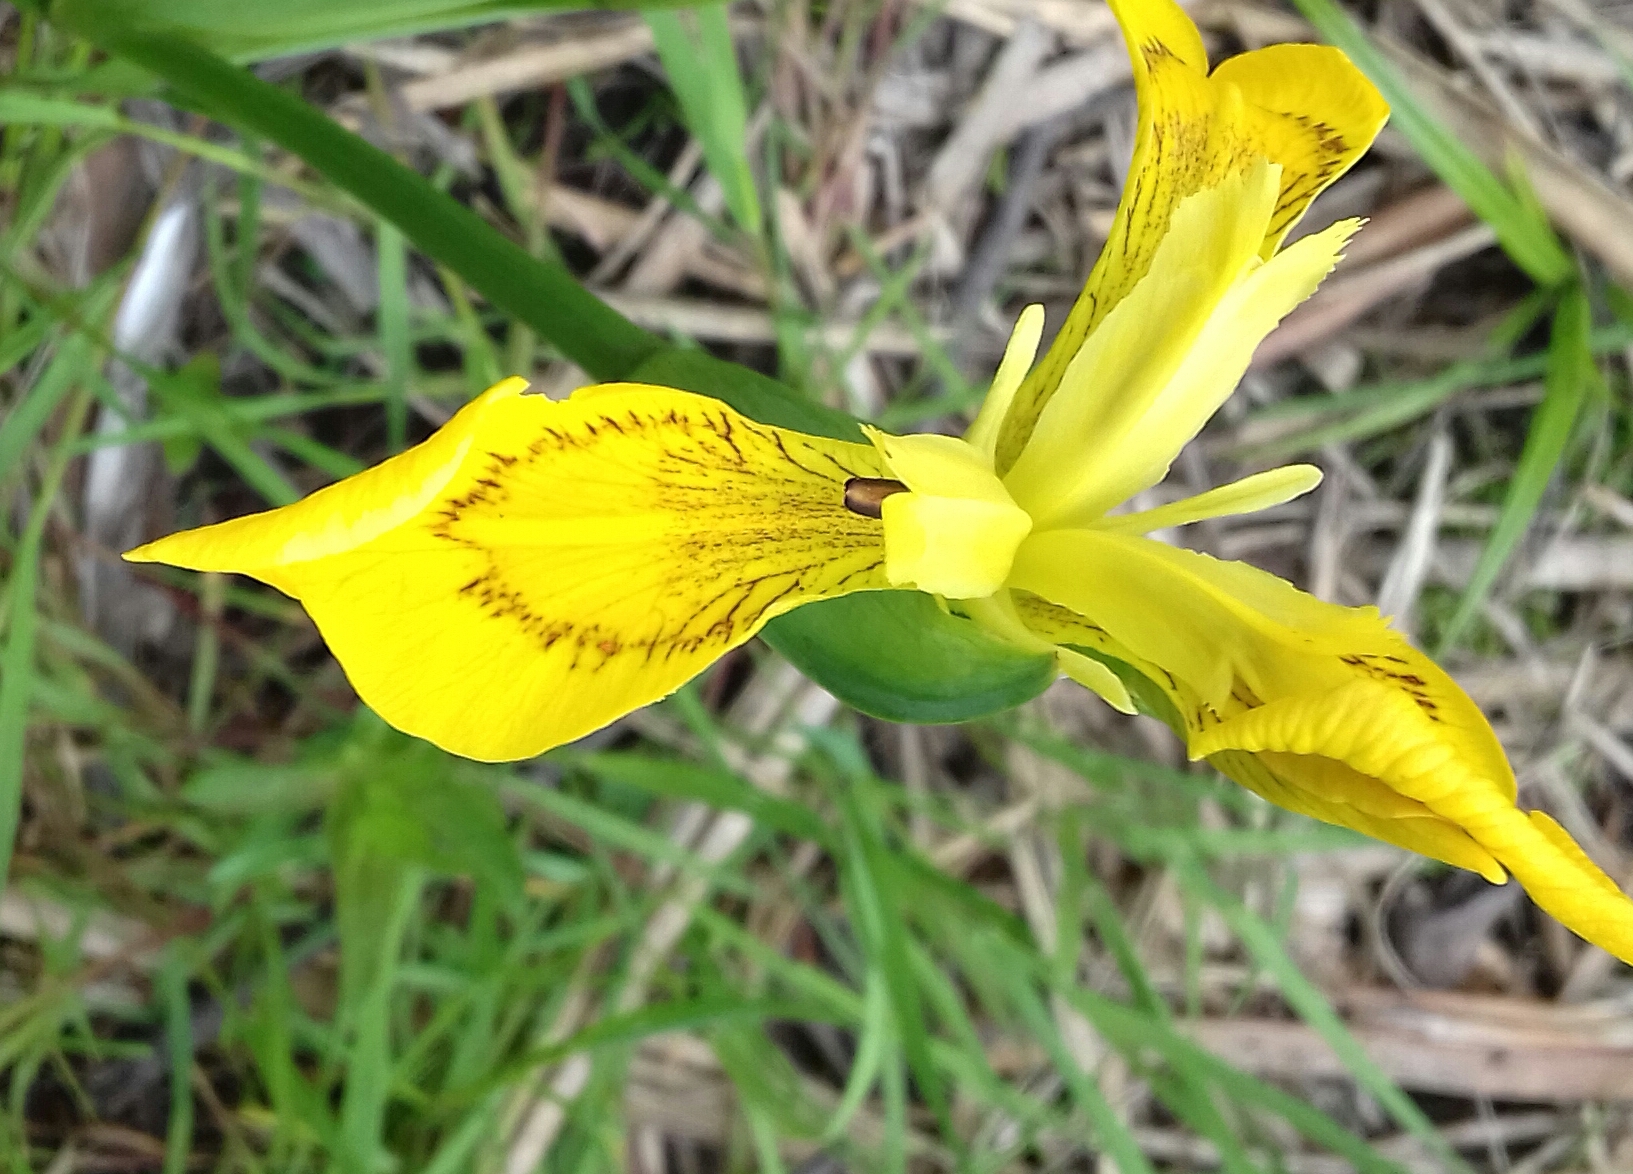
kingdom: Plantae
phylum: Tracheophyta
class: Liliopsida
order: Asparagales
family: Iridaceae
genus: Iris
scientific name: Iris pseudacorus
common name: Yellow flag
